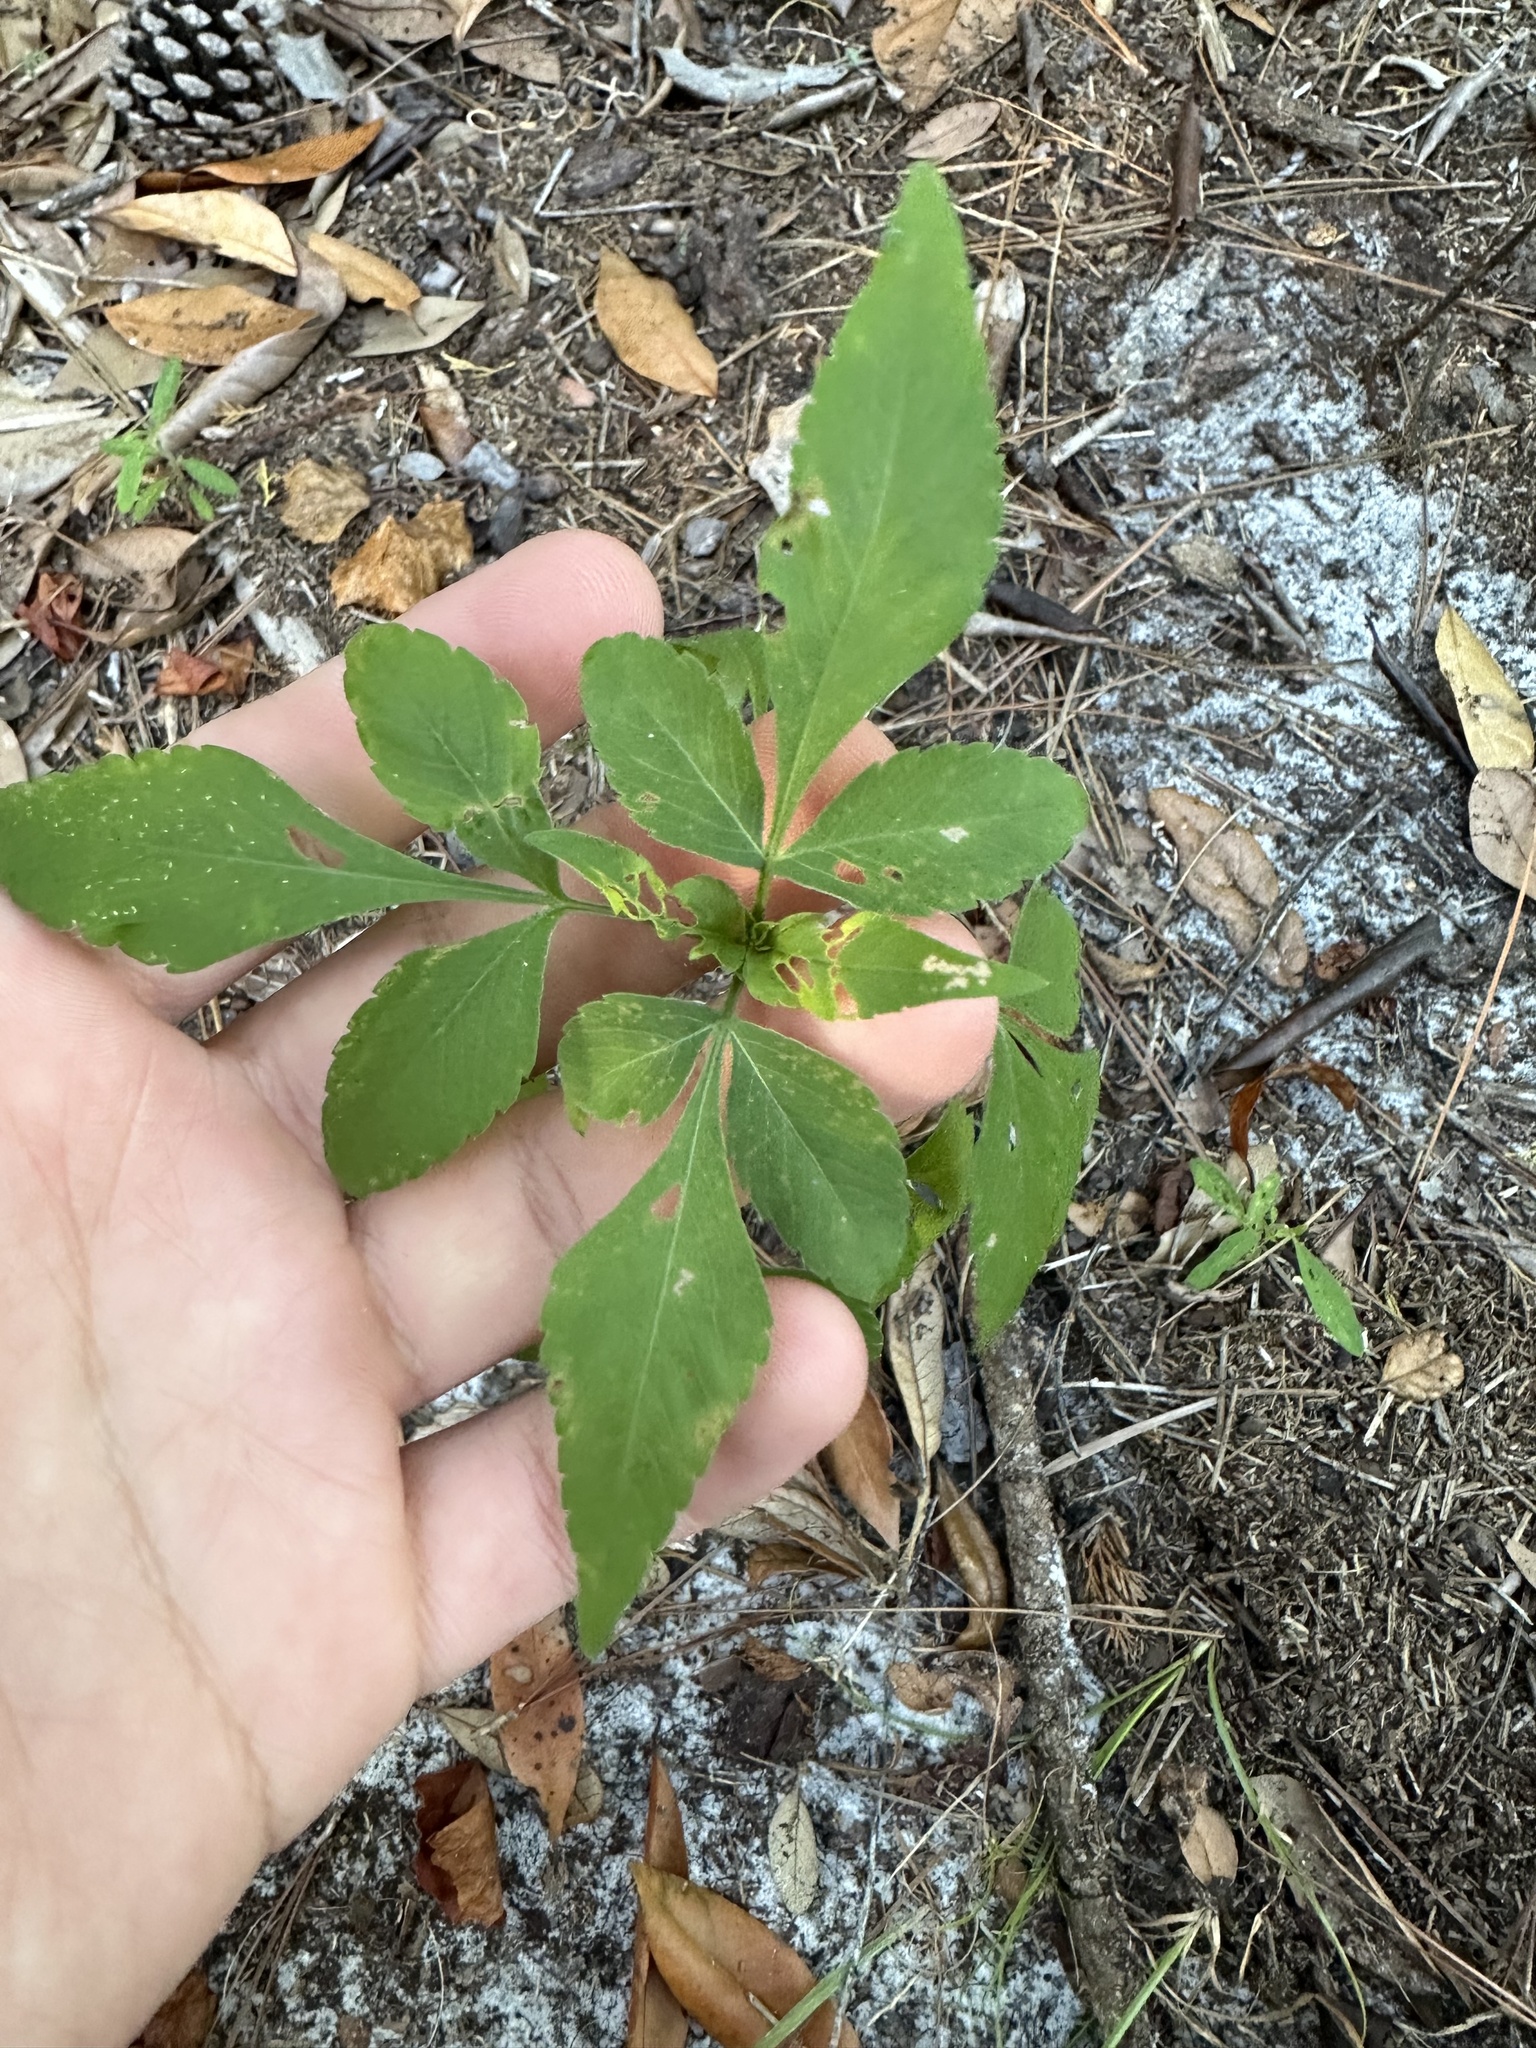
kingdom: Plantae
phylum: Tracheophyta
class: Magnoliopsida
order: Asterales
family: Asteraceae
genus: Bidens
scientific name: Bidens alba
